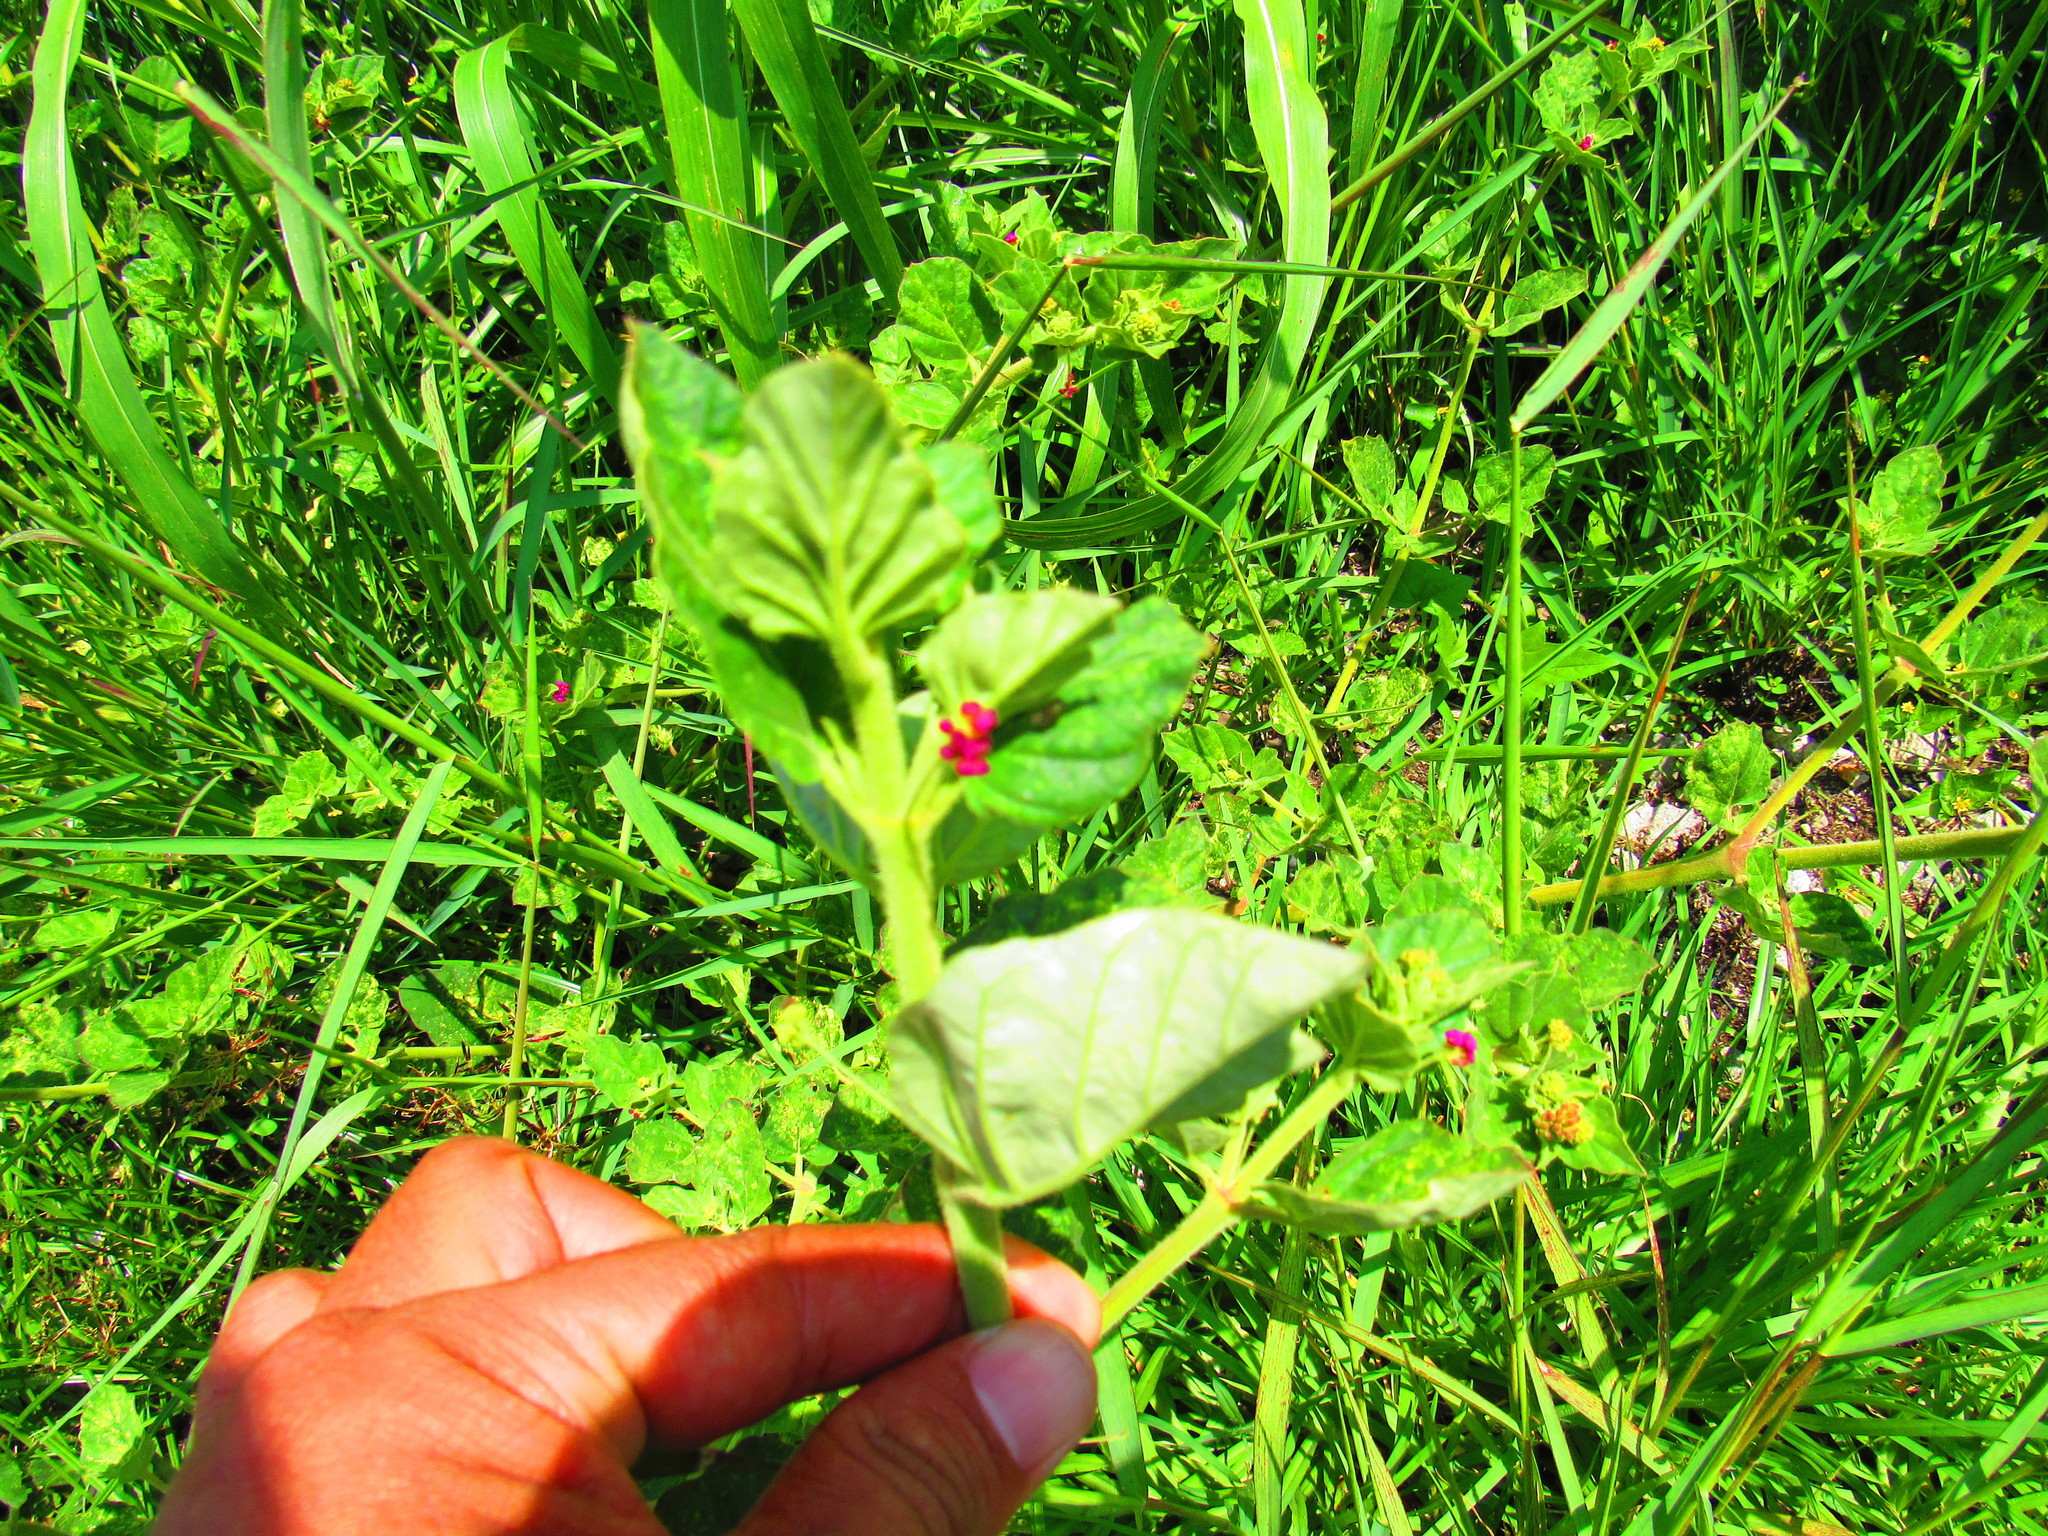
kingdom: Plantae
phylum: Tracheophyta
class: Magnoliopsida
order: Caryophyllales
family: Nyctaginaceae
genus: Boerhavia
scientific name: Boerhavia coccinea
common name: Scarlet spiderling
